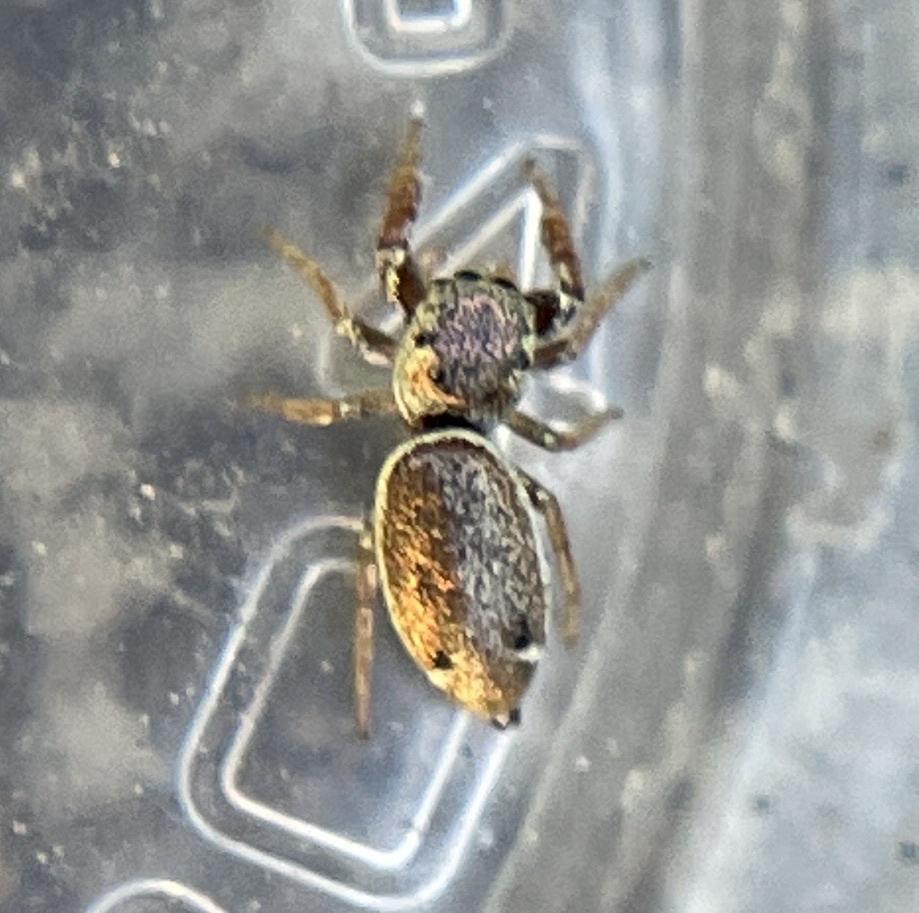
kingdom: Animalia
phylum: Arthropoda
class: Arachnida
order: Araneae
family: Salticidae
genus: Sassacus
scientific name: Sassacus vitis
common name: Jumping spiders
